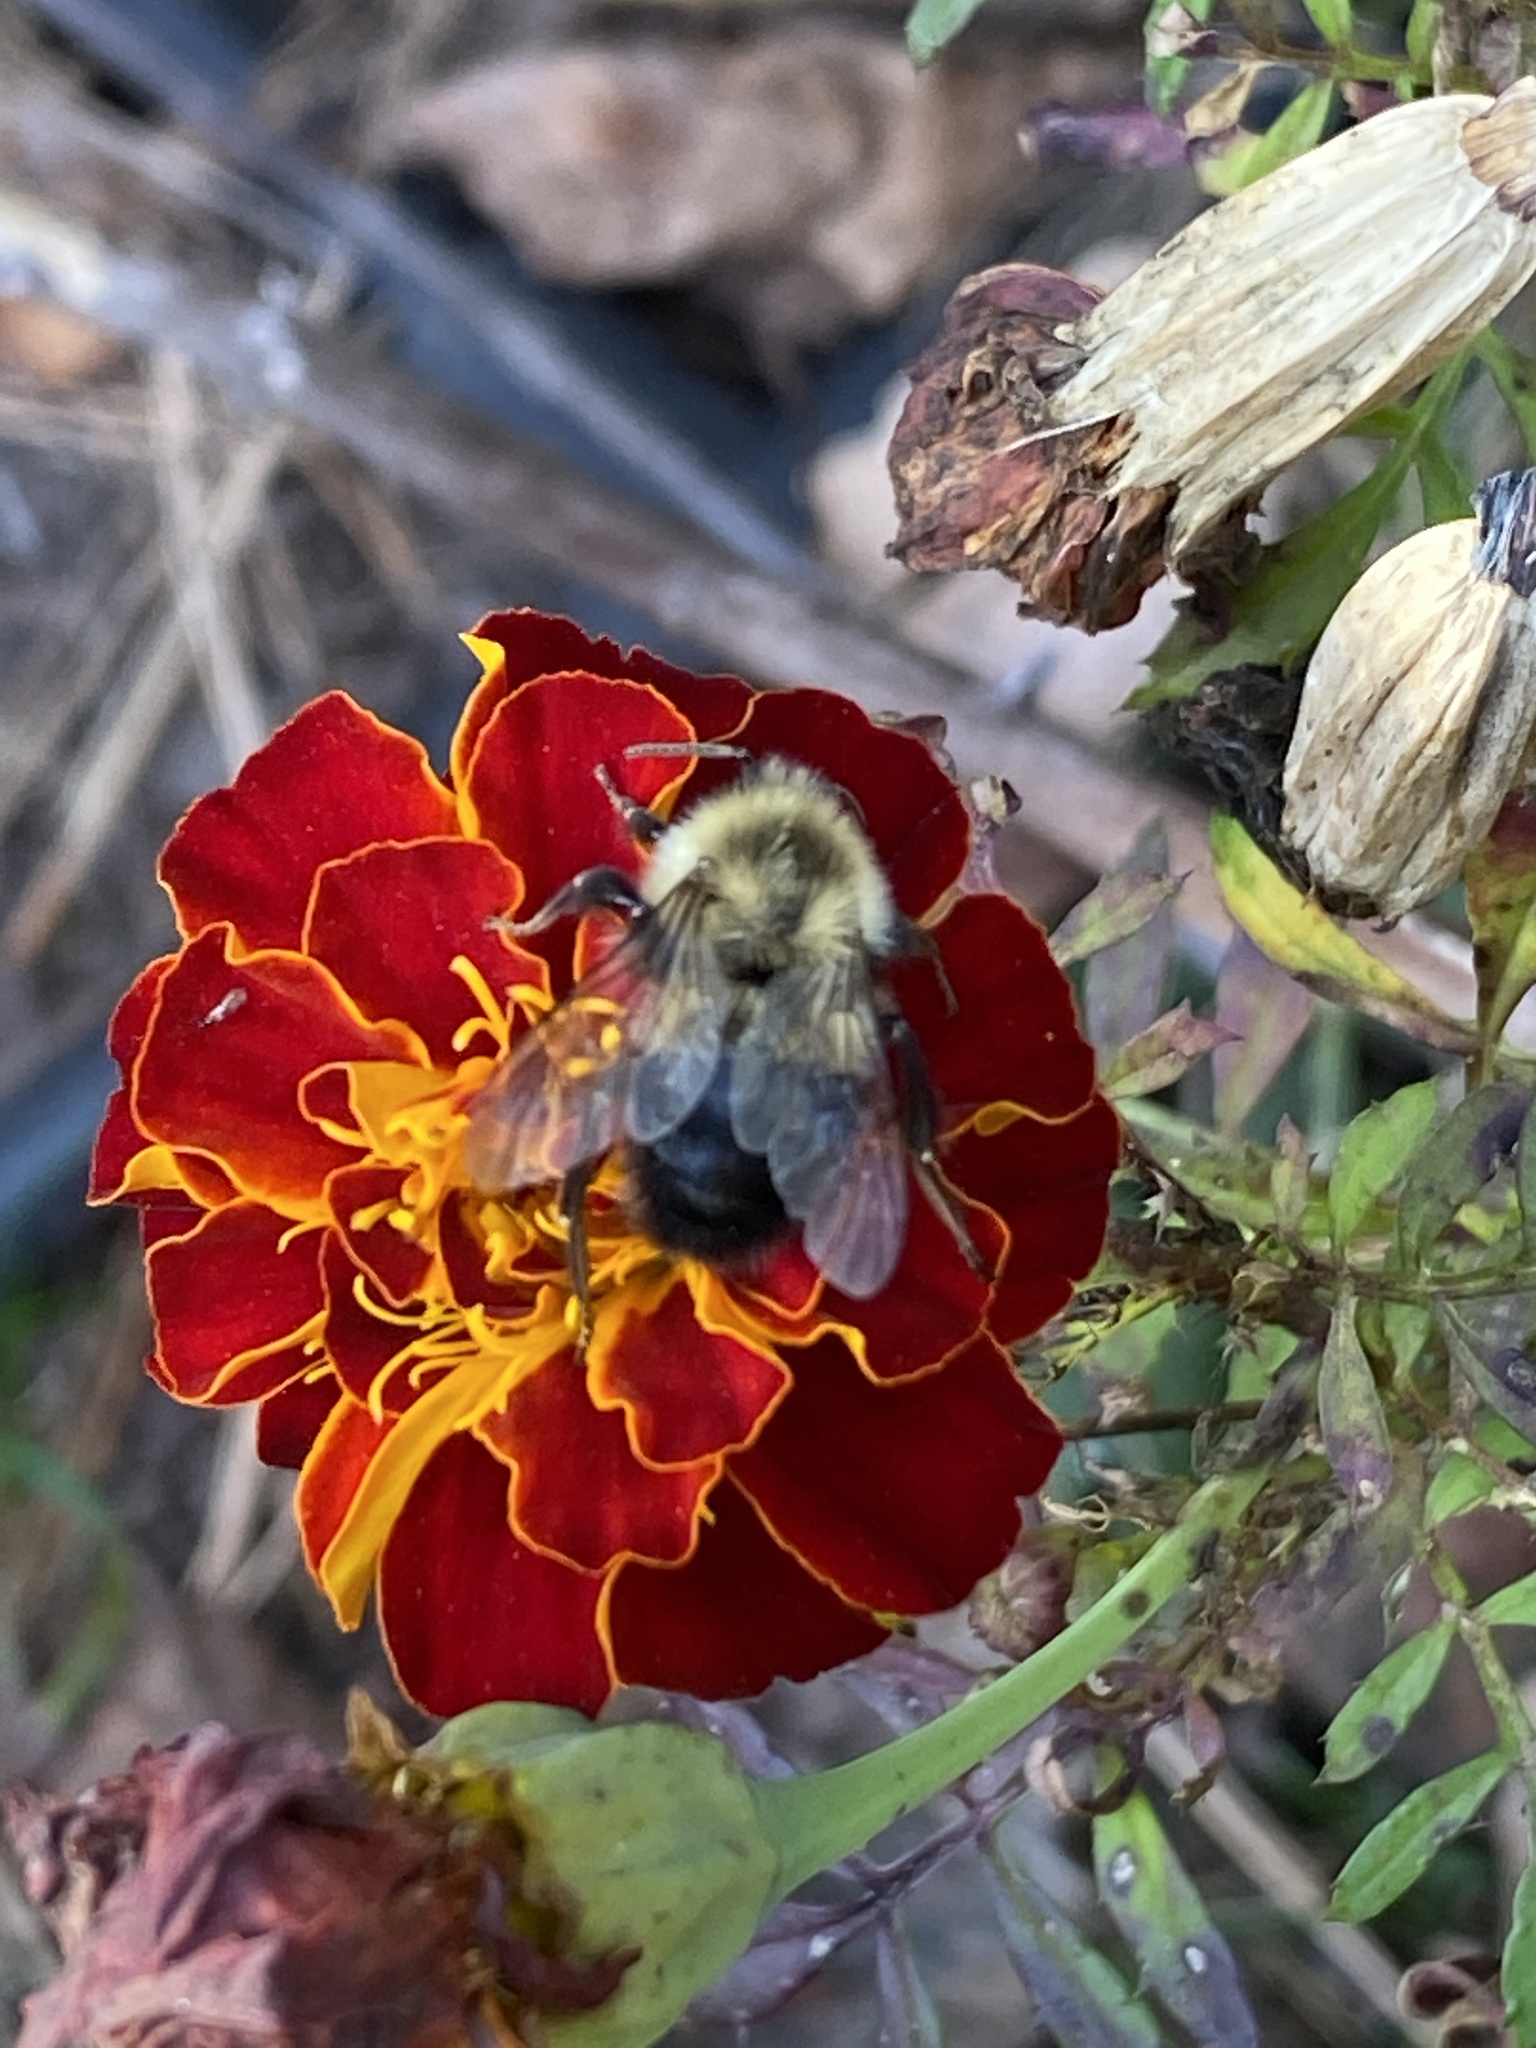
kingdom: Animalia
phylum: Arthropoda
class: Insecta
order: Hymenoptera
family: Apidae
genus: Bombus
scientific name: Bombus impatiens
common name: Common eastern bumble bee
